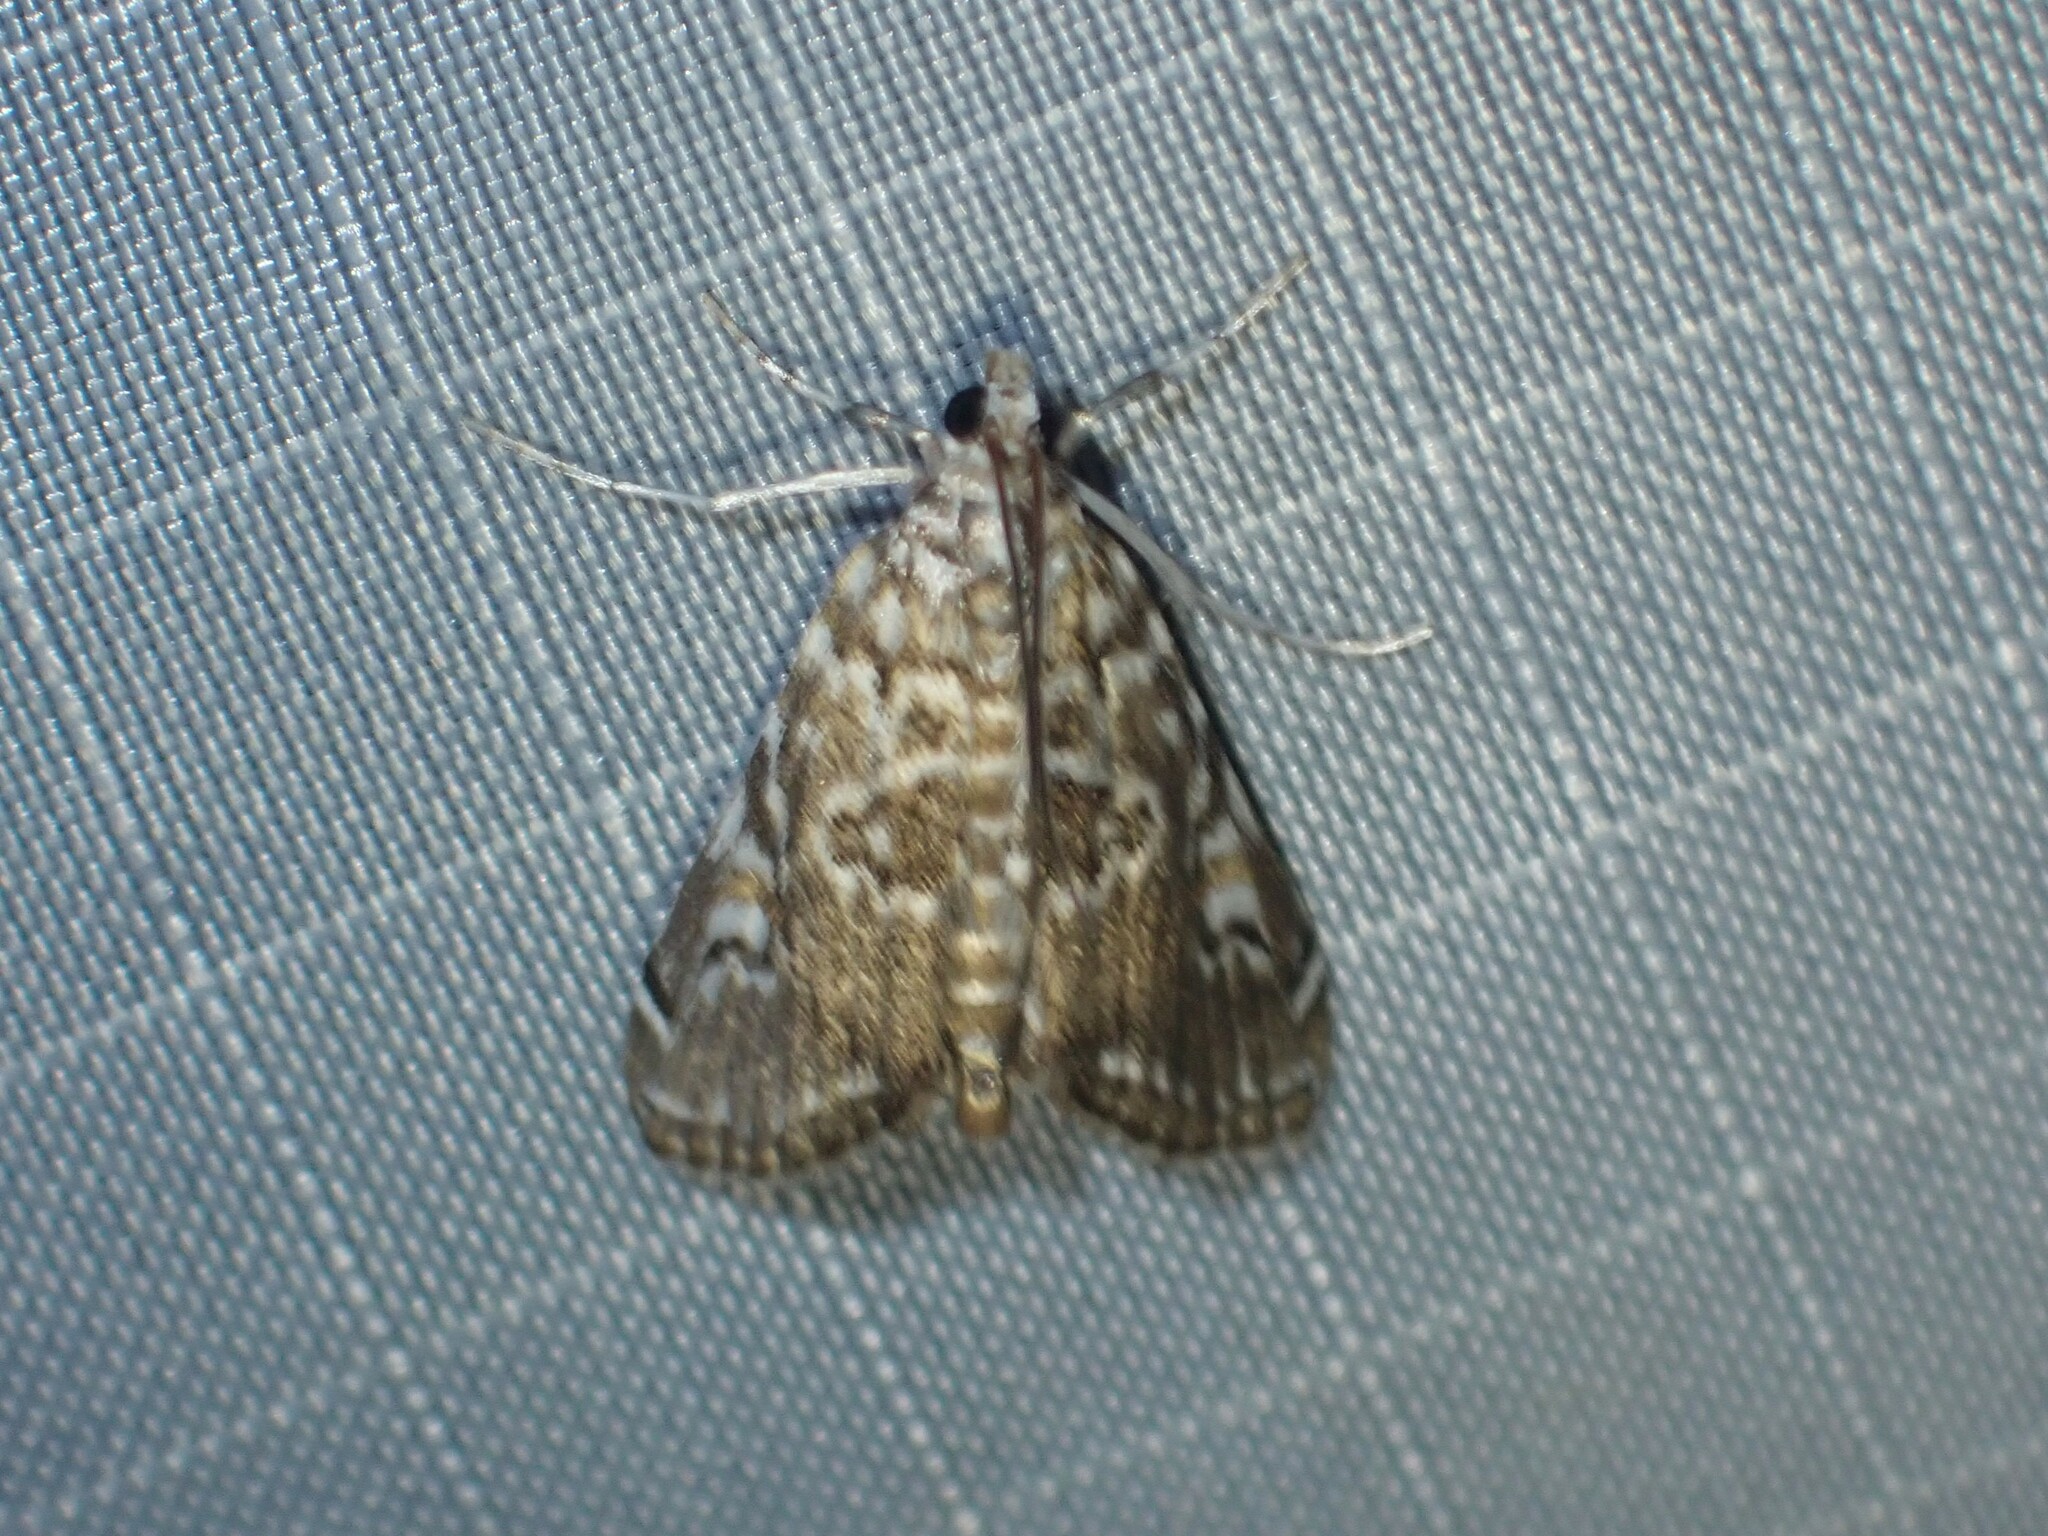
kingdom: Animalia
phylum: Arthropoda
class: Insecta
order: Lepidoptera
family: Crambidae
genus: Elophila
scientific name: Elophila gyralis
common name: Waterlily borer moth
